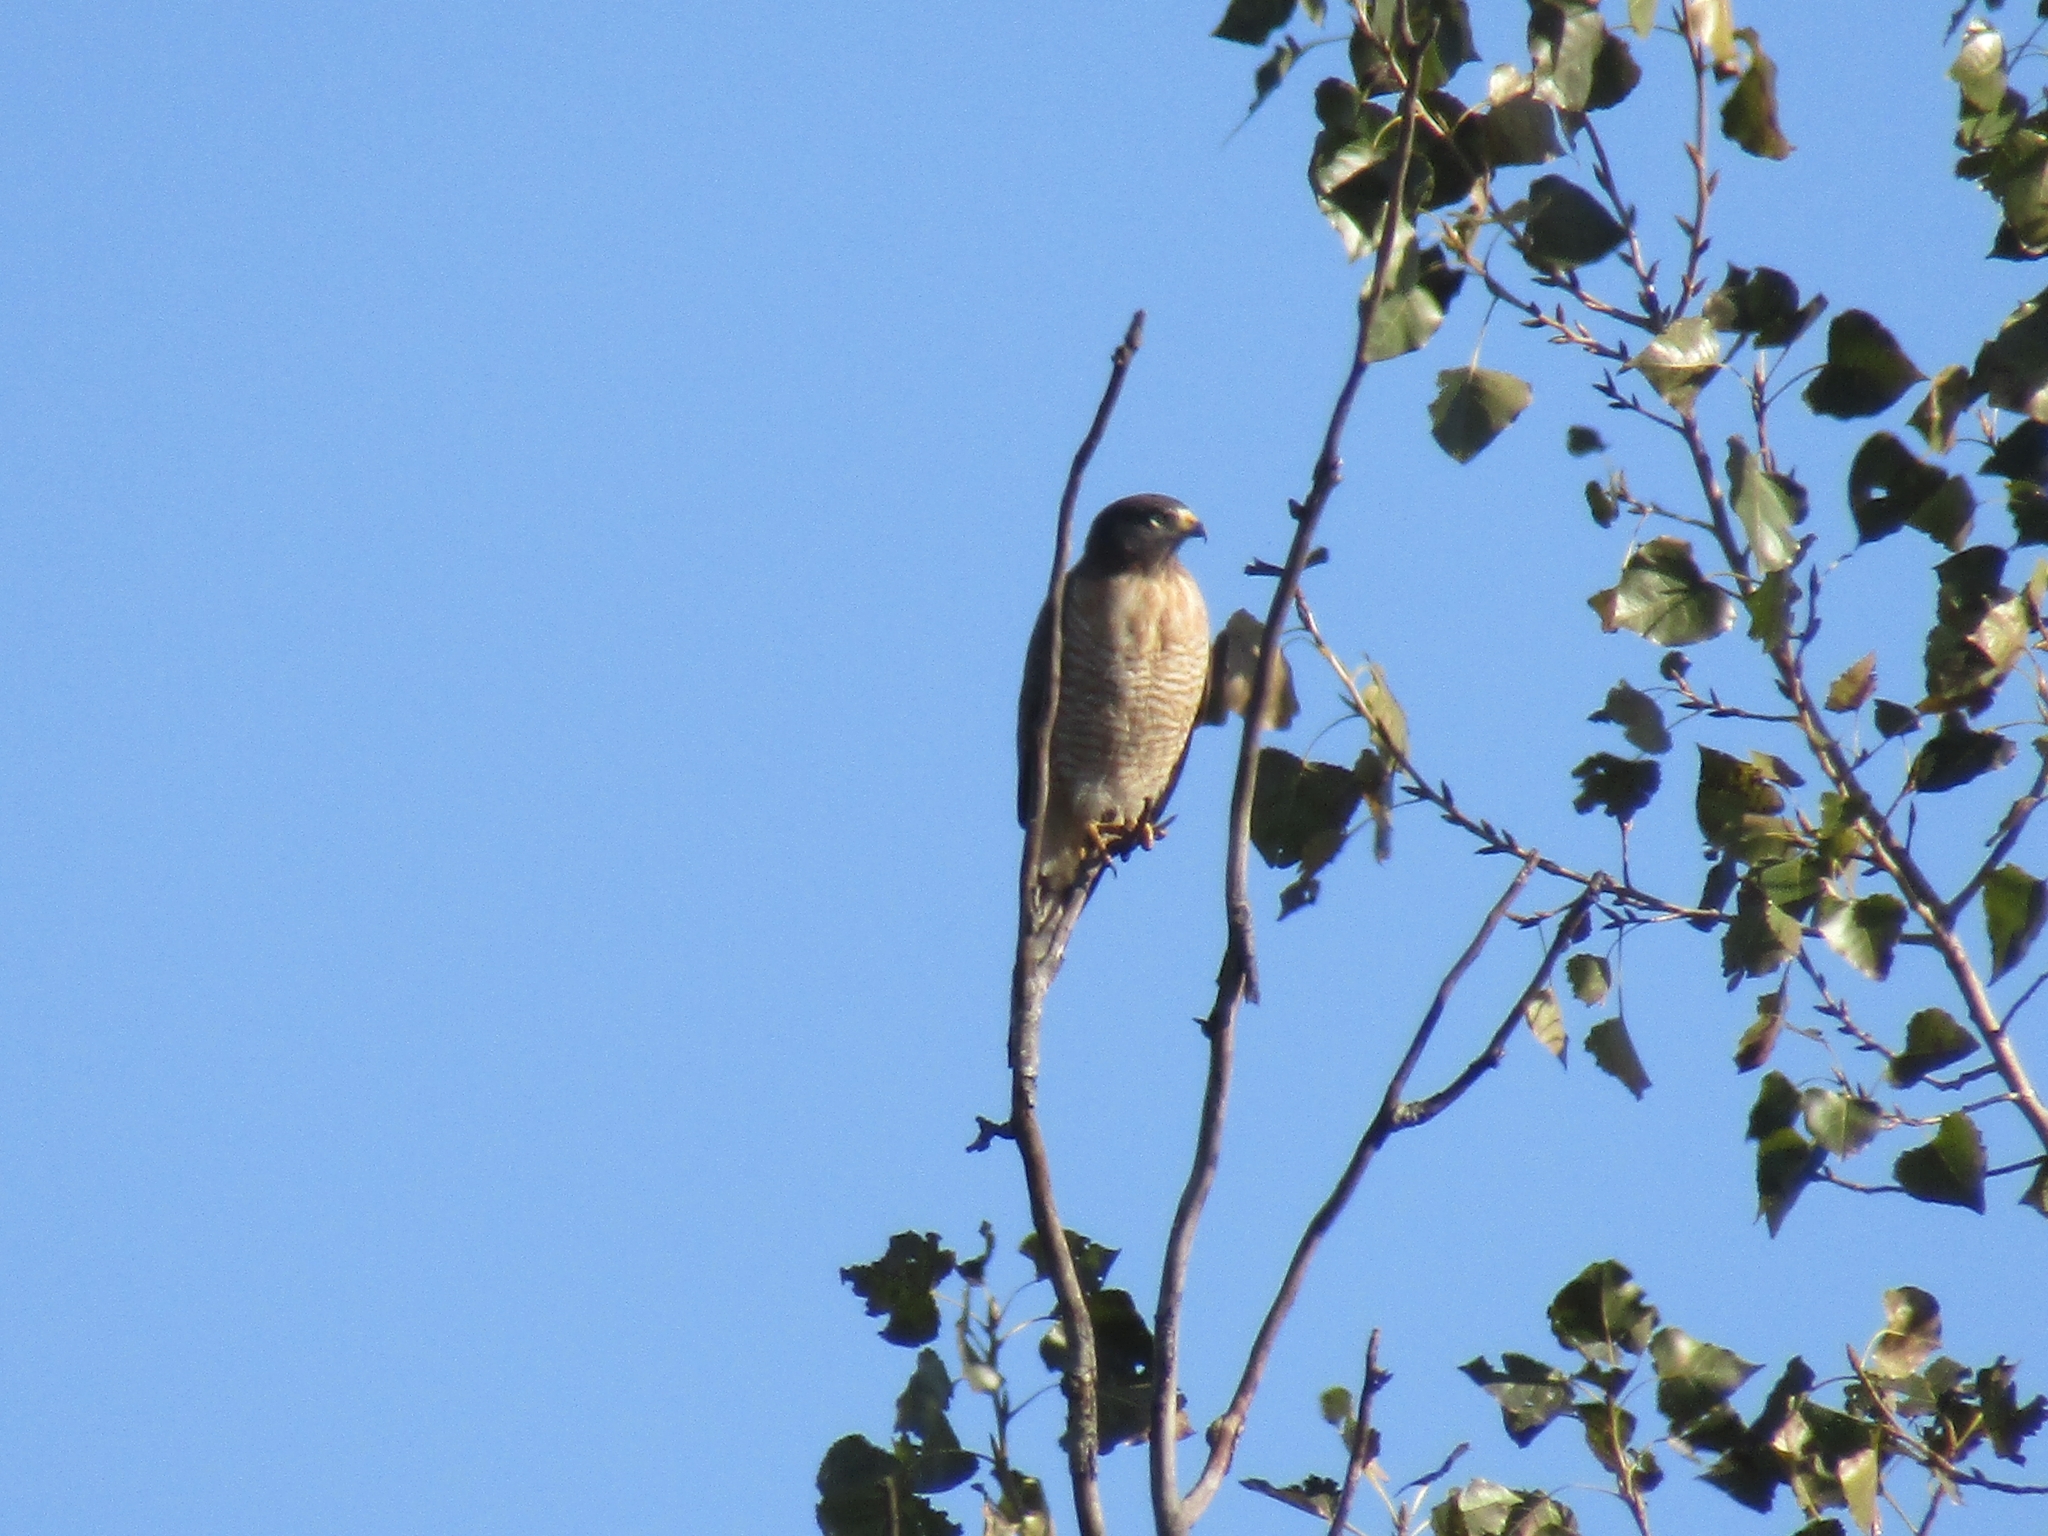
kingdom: Animalia
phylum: Chordata
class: Aves
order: Accipitriformes
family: Accipitridae
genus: Rupornis
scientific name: Rupornis magnirostris
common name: Roadside hawk
